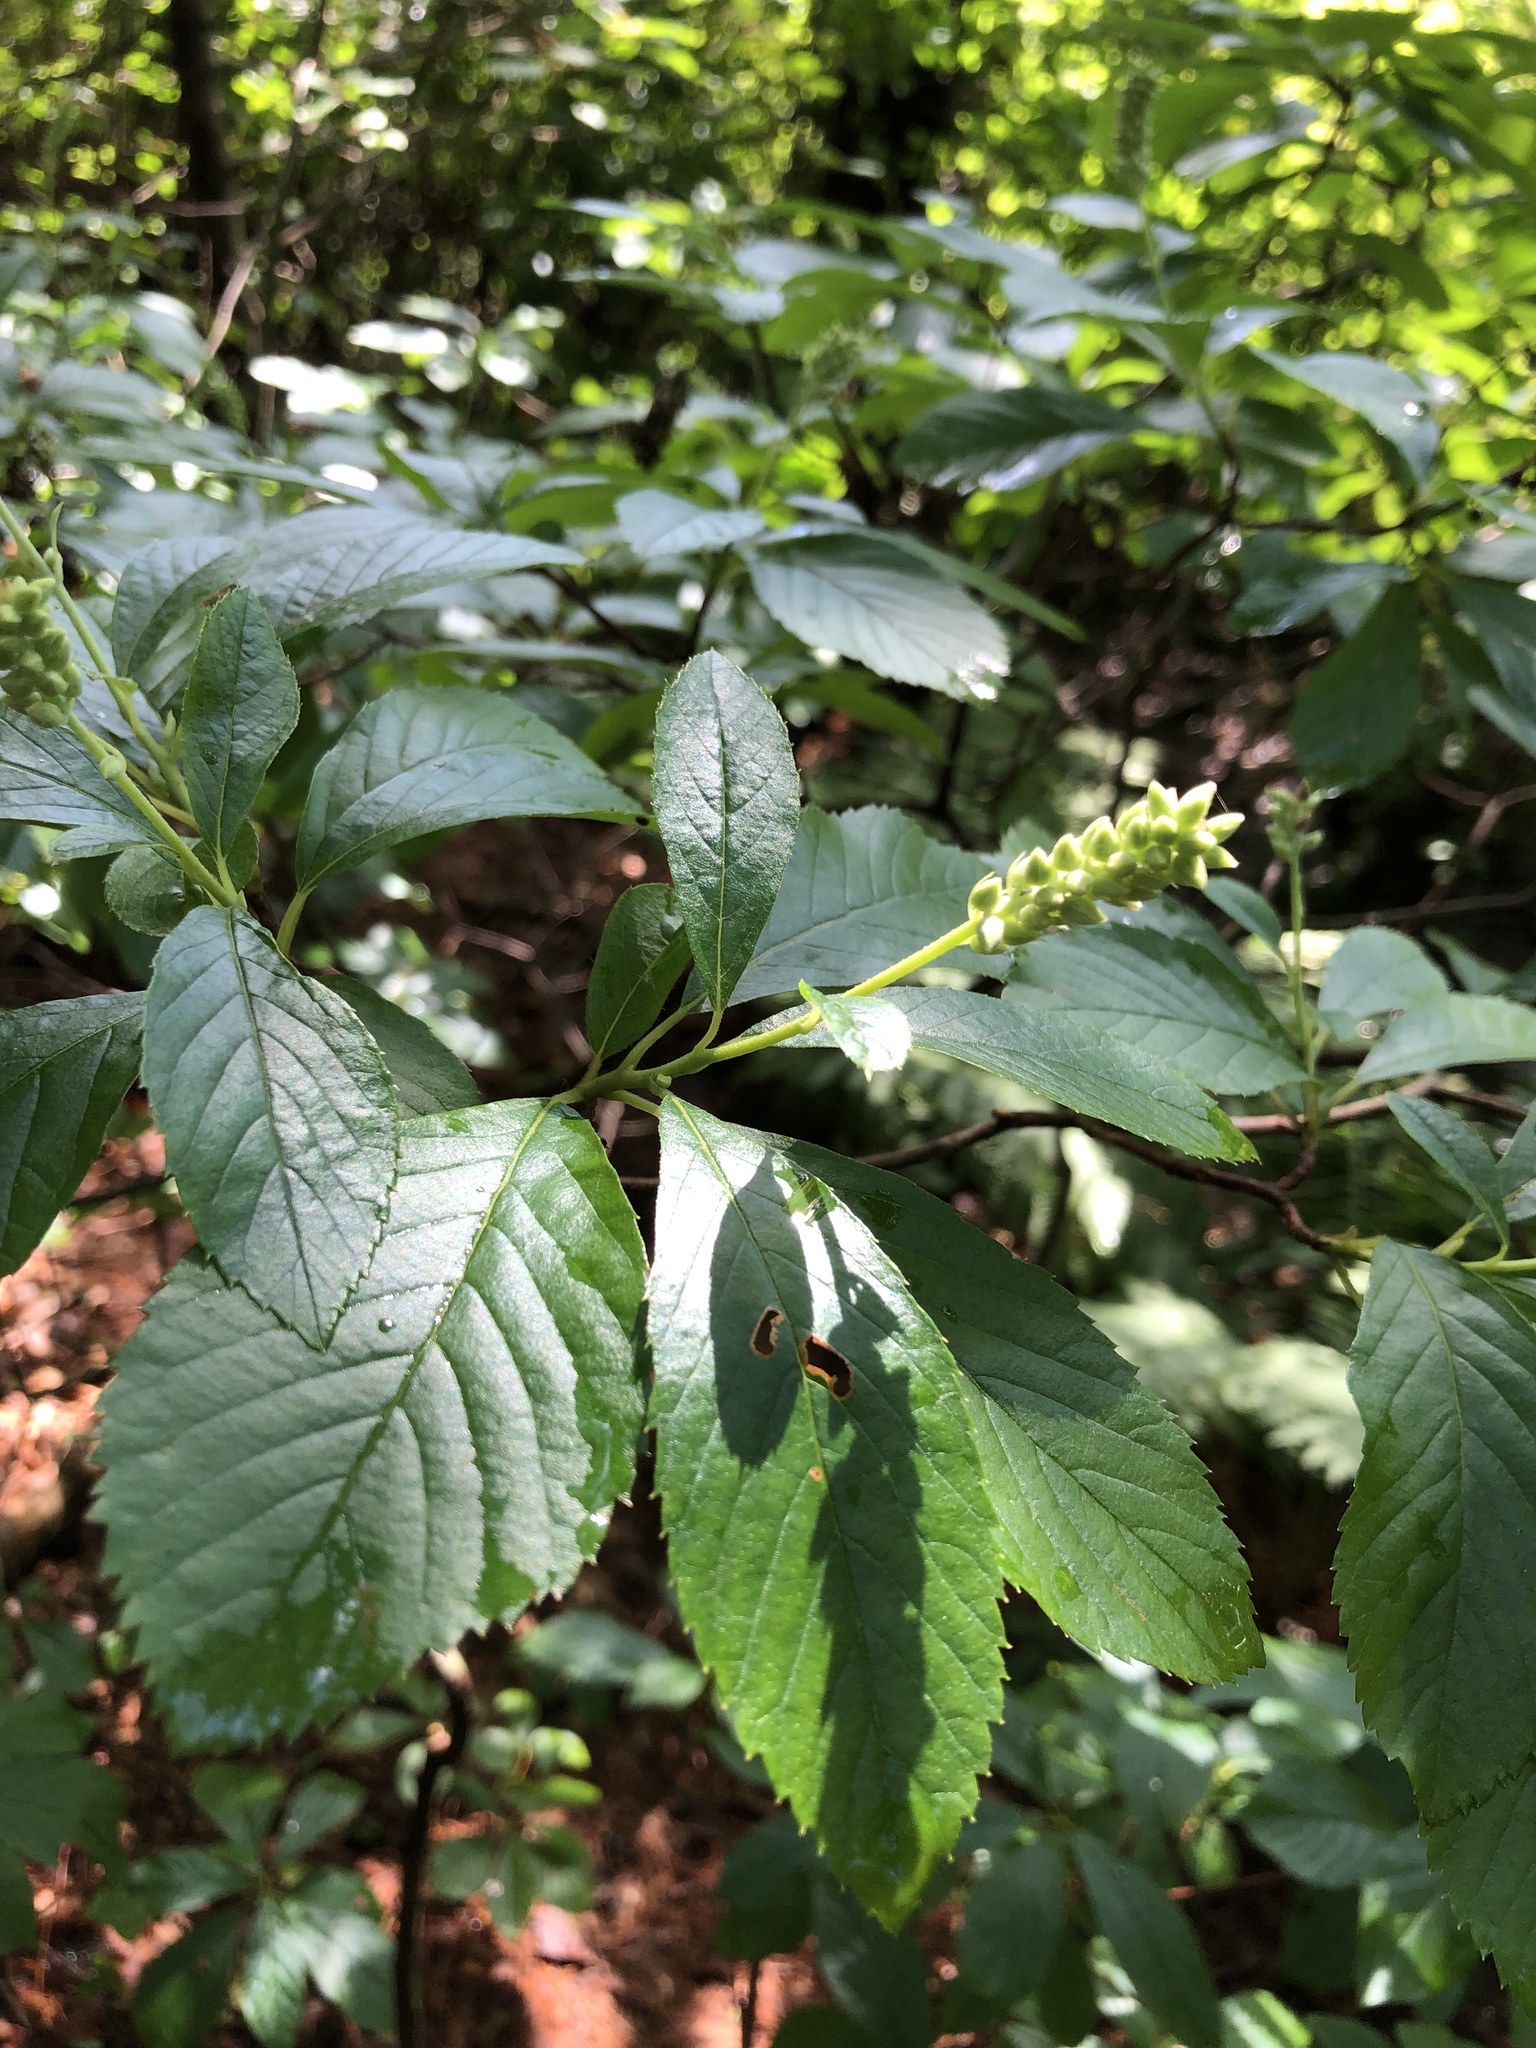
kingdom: Plantae
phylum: Tracheophyta
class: Magnoliopsida
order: Ericales
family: Clethraceae
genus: Clethra
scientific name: Clethra alnifolia
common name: Sweet pepperbush
